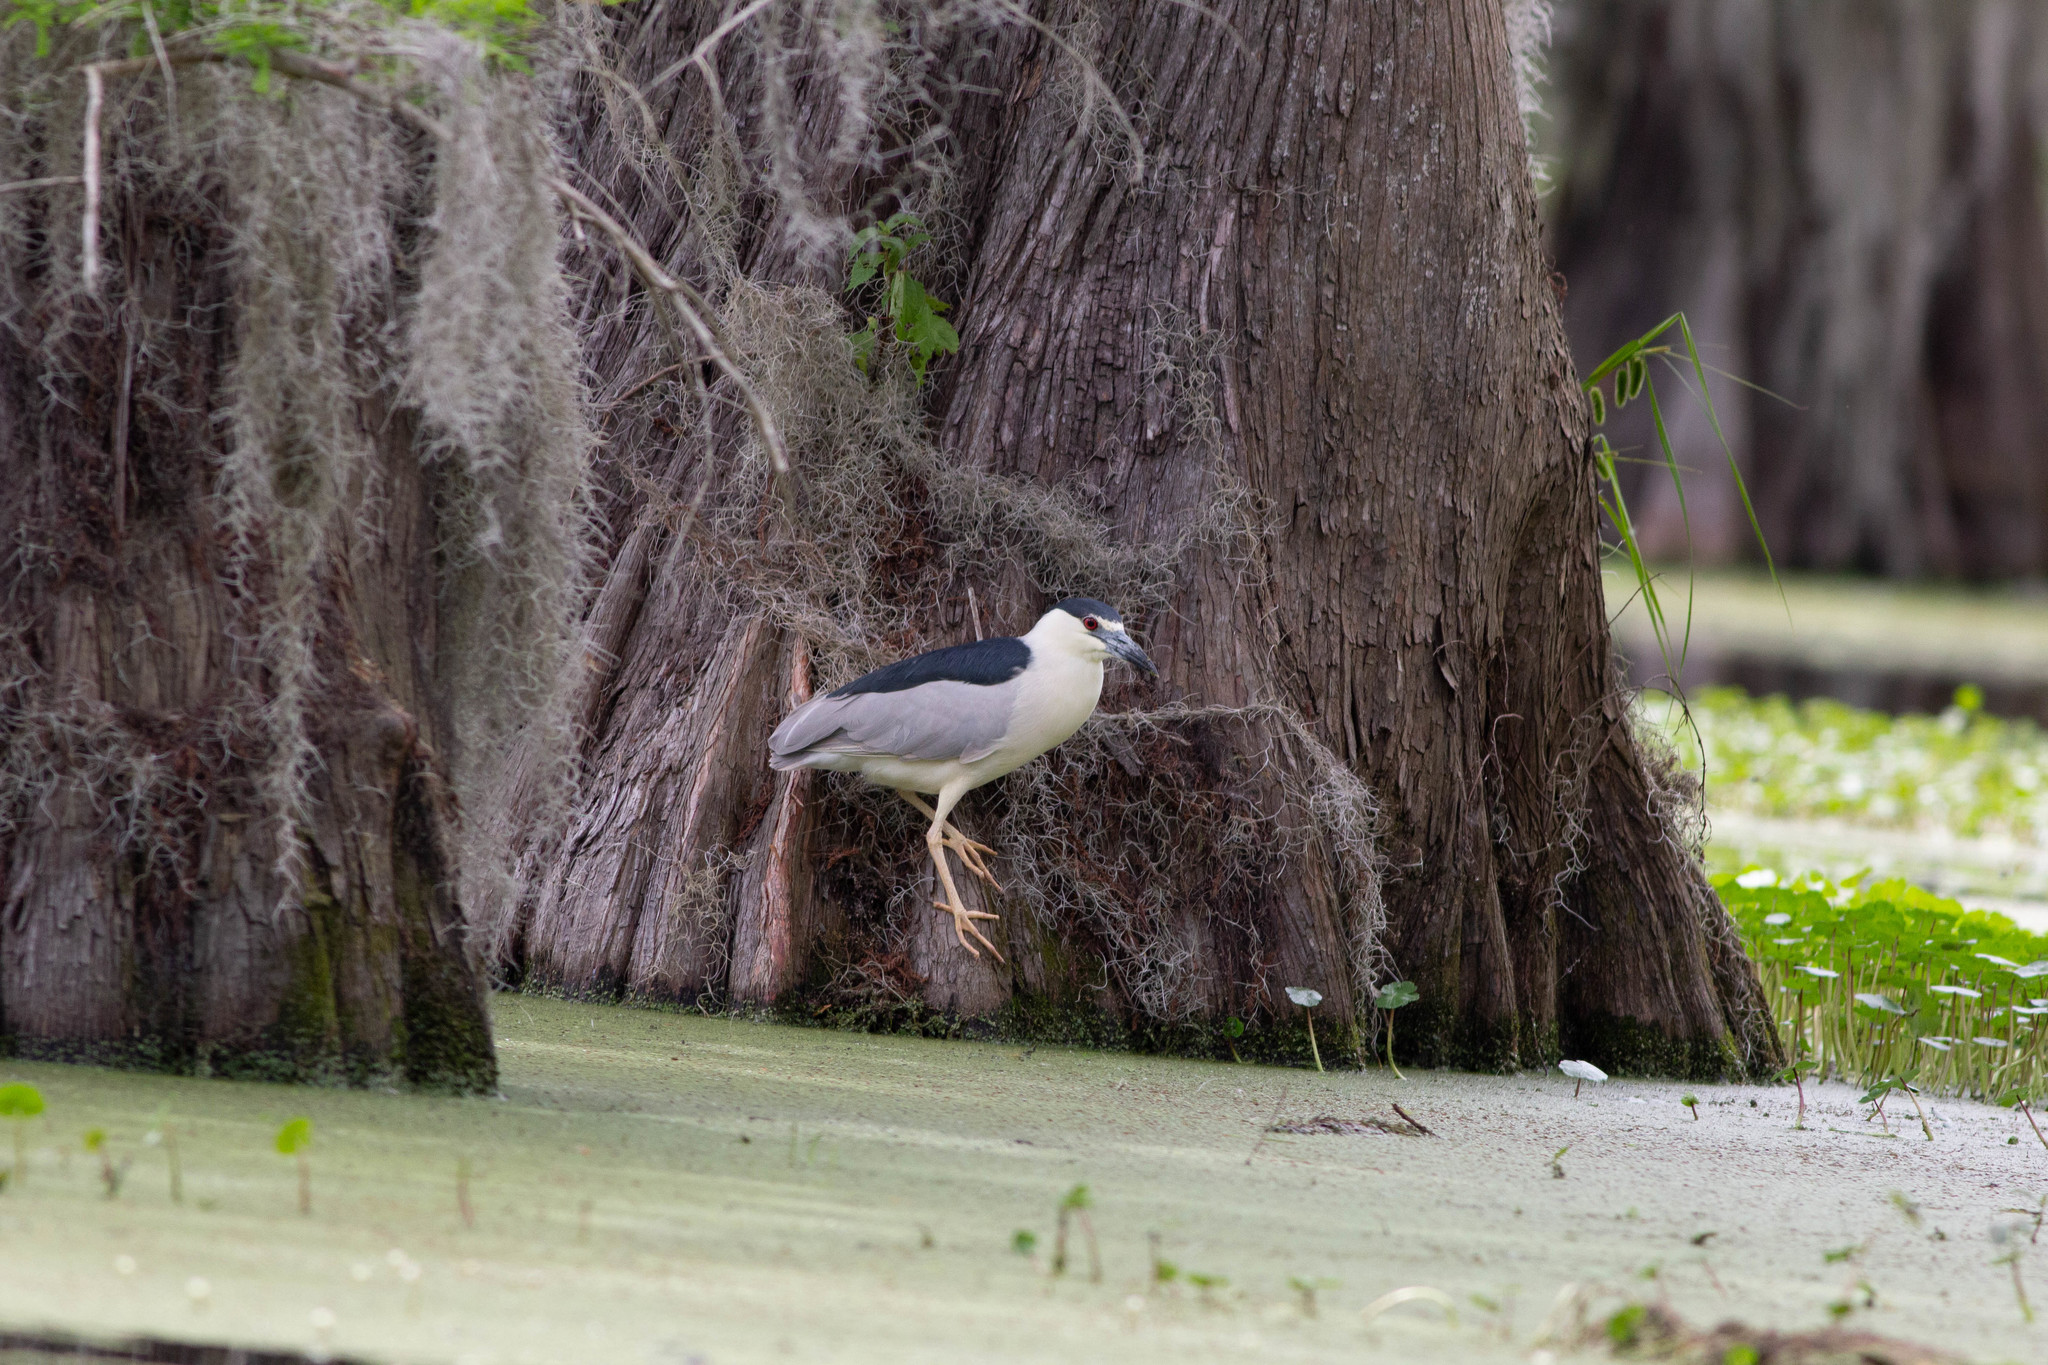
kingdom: Animalia
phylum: Chordata
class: Aves
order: Pelecaniformes
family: Ardeidae
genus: Nycticorax
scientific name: Nycticorax nycticorax
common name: Black-crowned night heron
